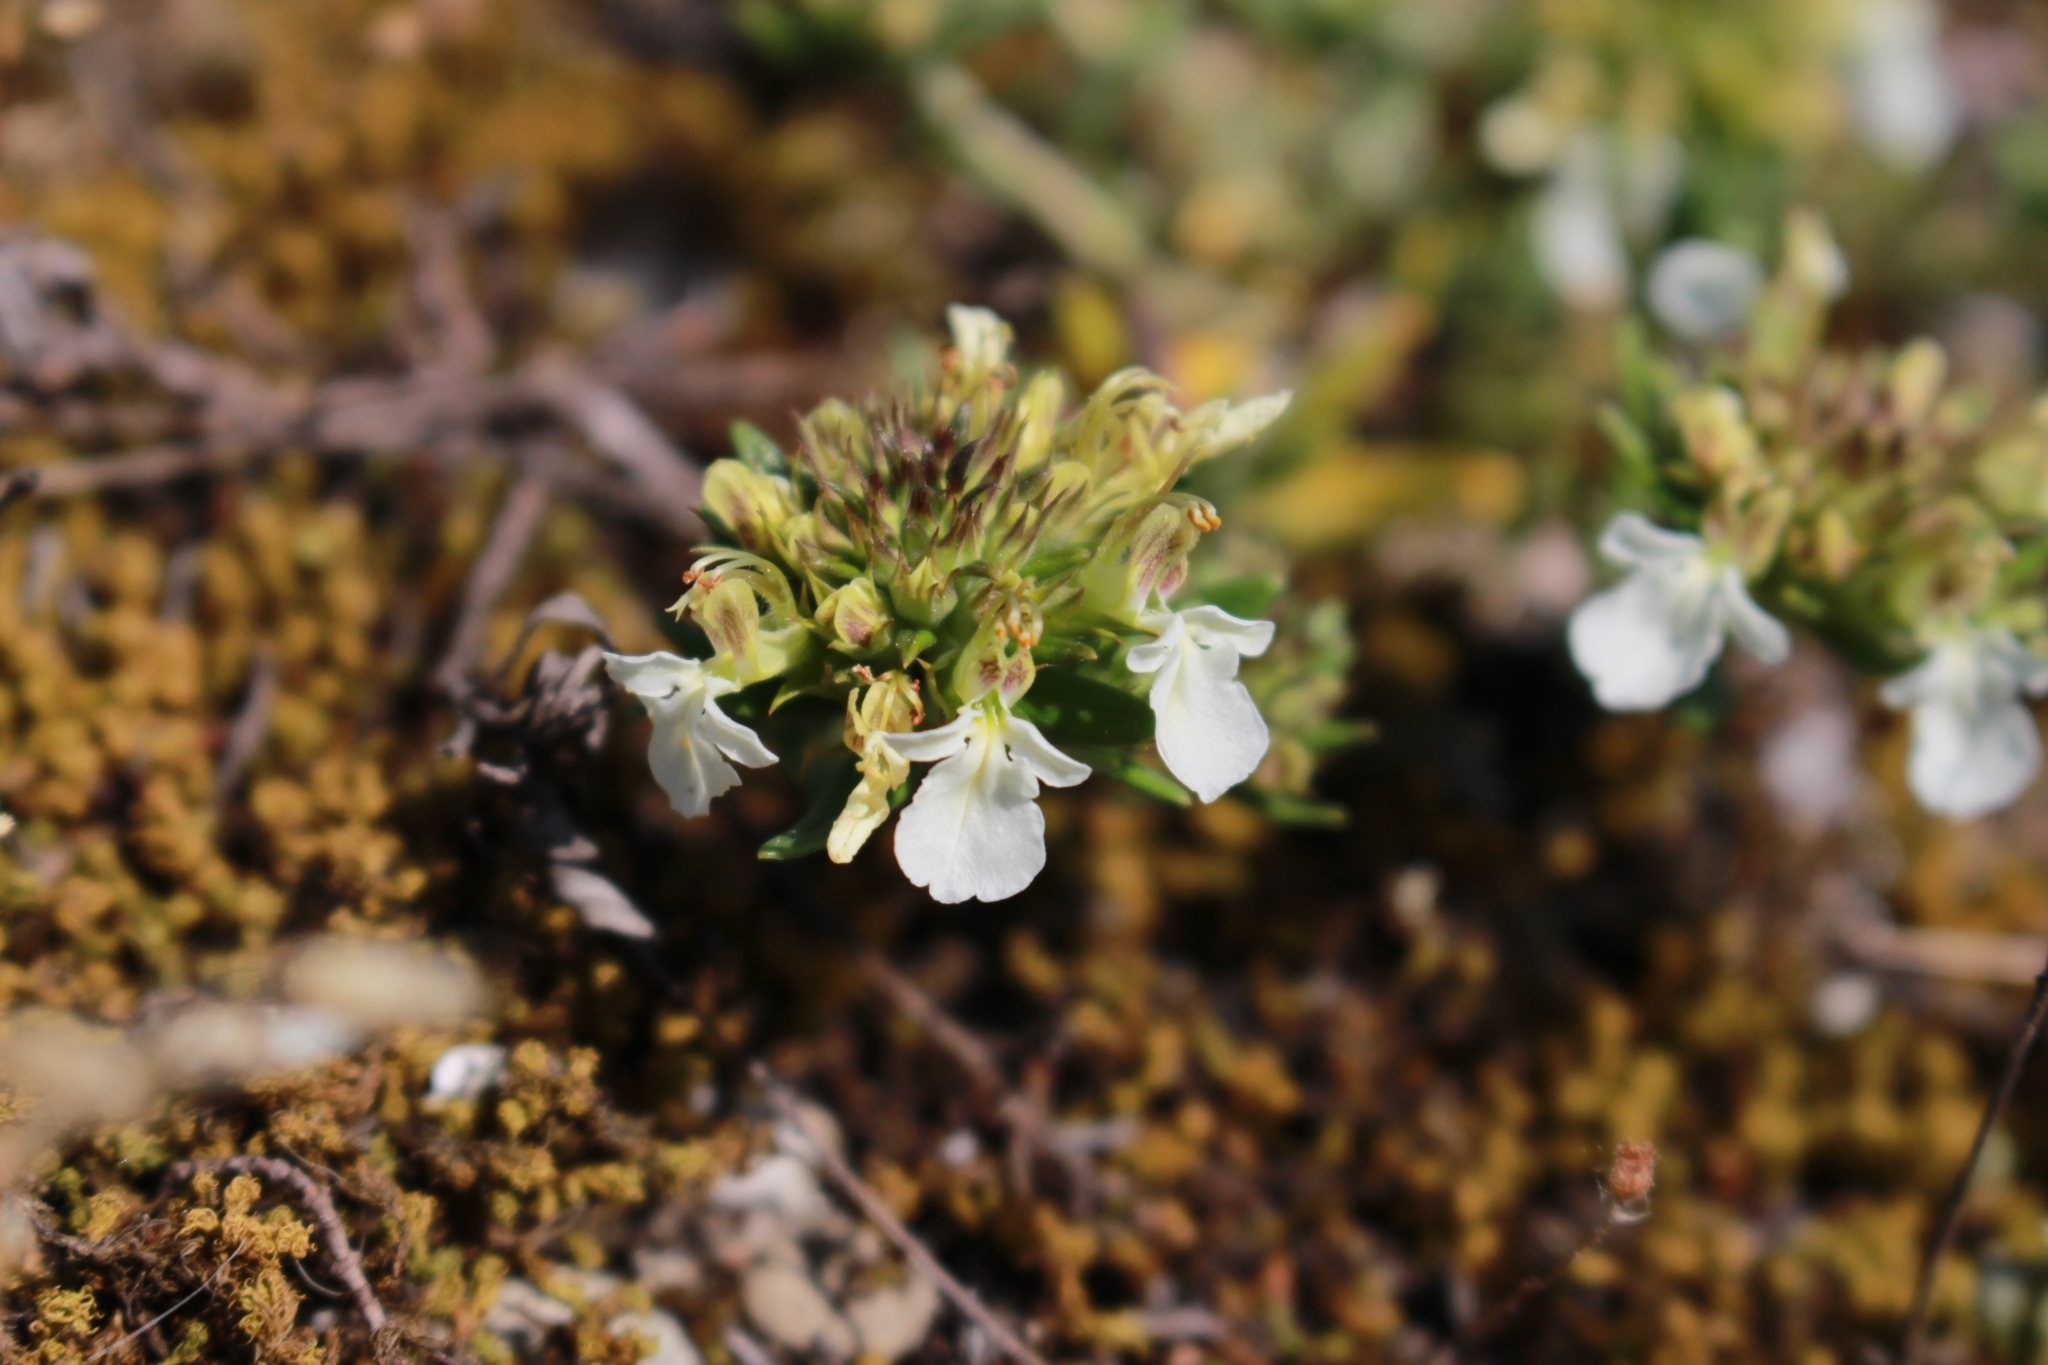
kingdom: Plantae
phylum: Tracheophyta
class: Magnoliopsida
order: Lamiales
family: Lamiaceae
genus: Teucrium
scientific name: Teucrium montanum
